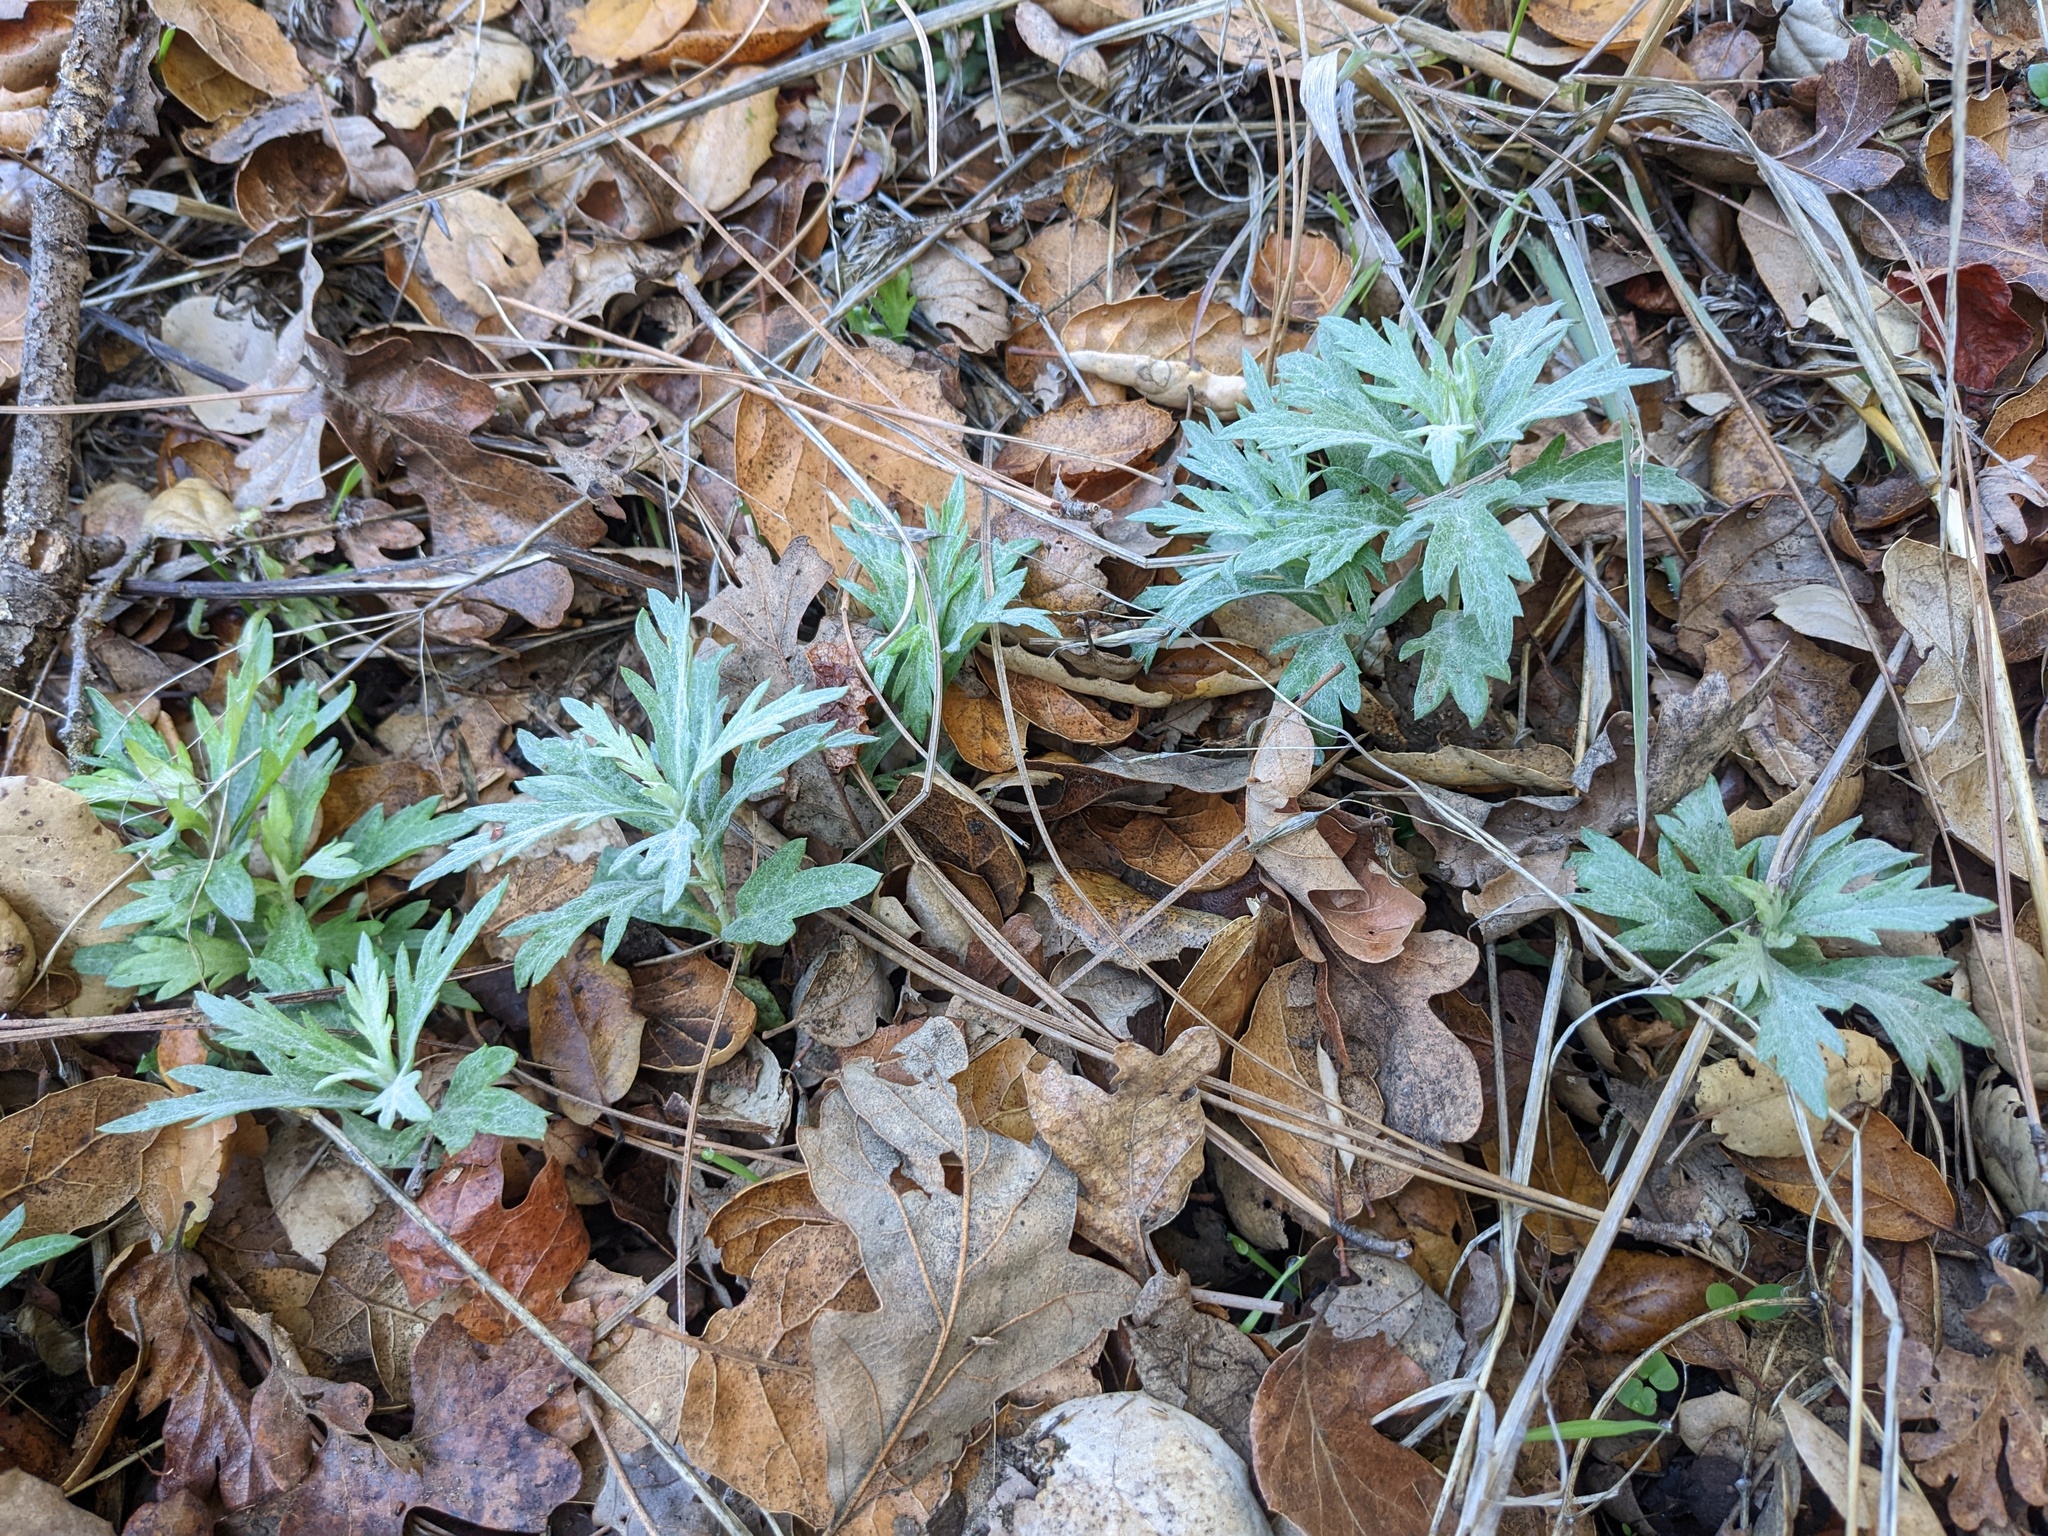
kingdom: Plantae
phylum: Tracheophyta
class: Magnoliopsida
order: Asterales
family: Asteraceae
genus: Artemisia
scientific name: Artemisia douglasiana
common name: Northwest mugwort
